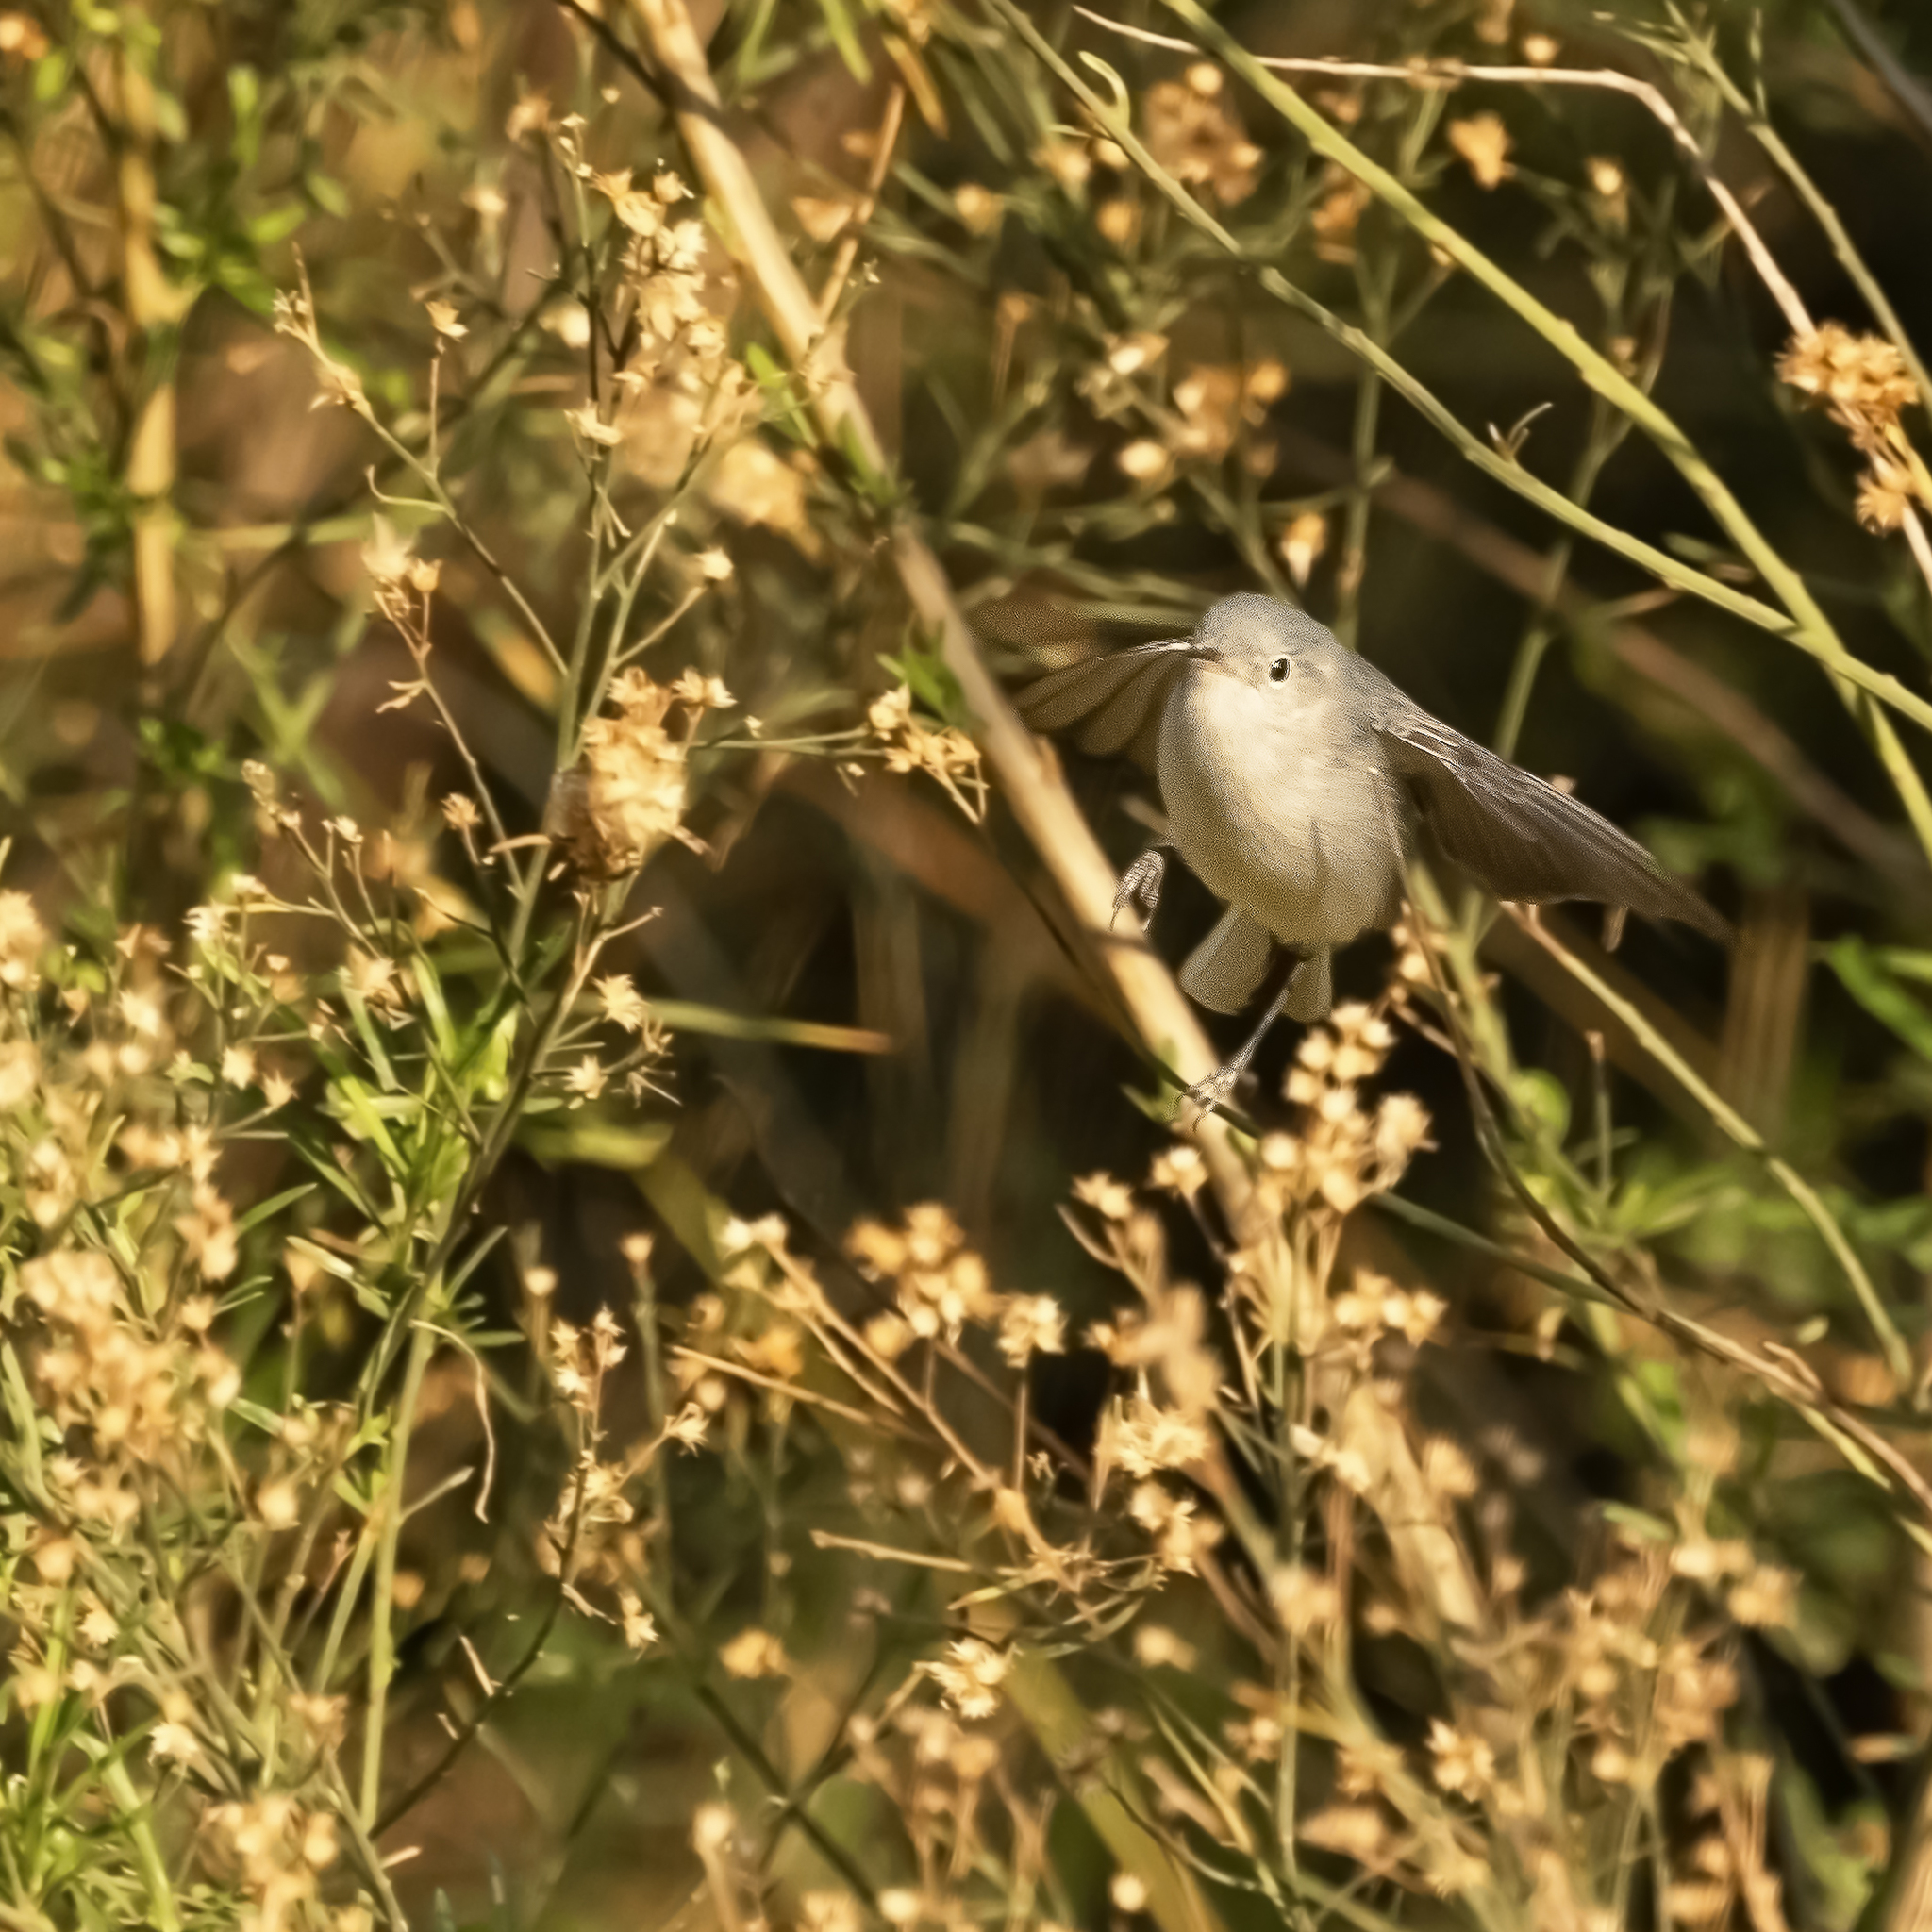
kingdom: Animalia
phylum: Chordata
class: Aves
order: Passeriformes
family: Polioptilidae
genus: Polioptila
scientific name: Polioptila caerulea
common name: Blue-gray gnatcatcher
